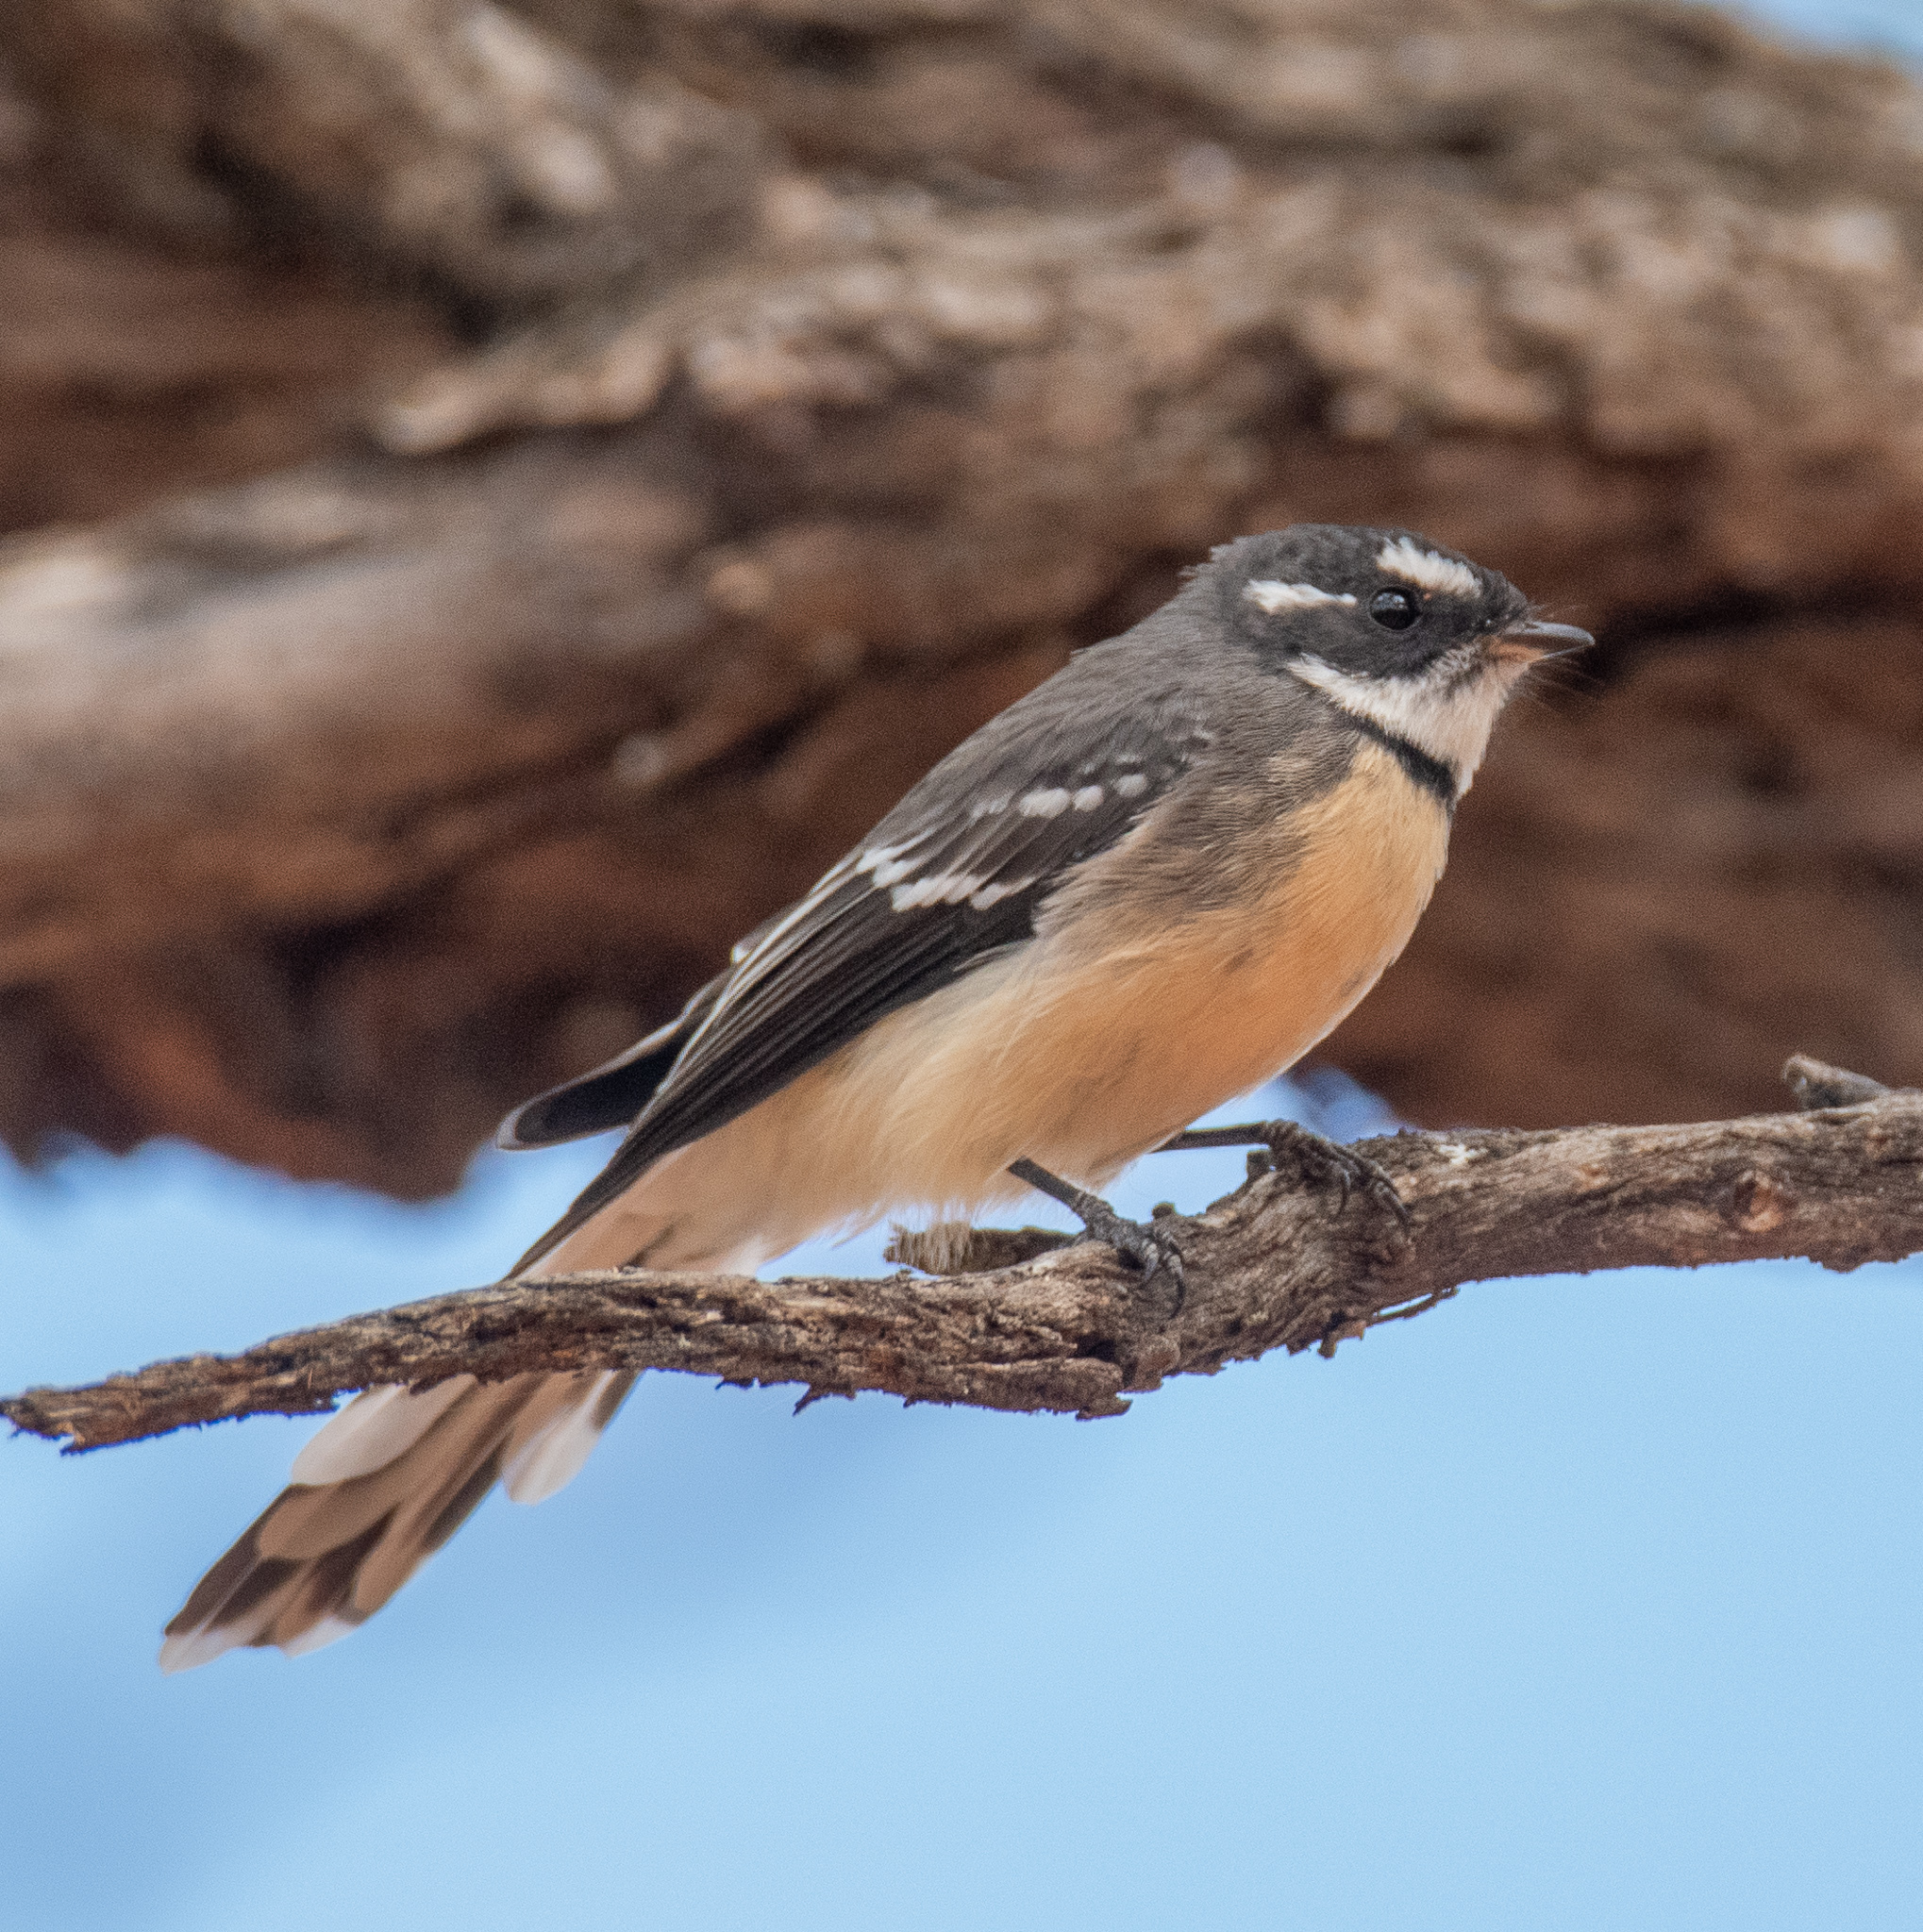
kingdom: Animalia
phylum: Chordata
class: Aves
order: Passeriformes
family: Rhipiduridae
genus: Rhipidura
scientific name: Rhipidura albiscapa
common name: Grey fantail
